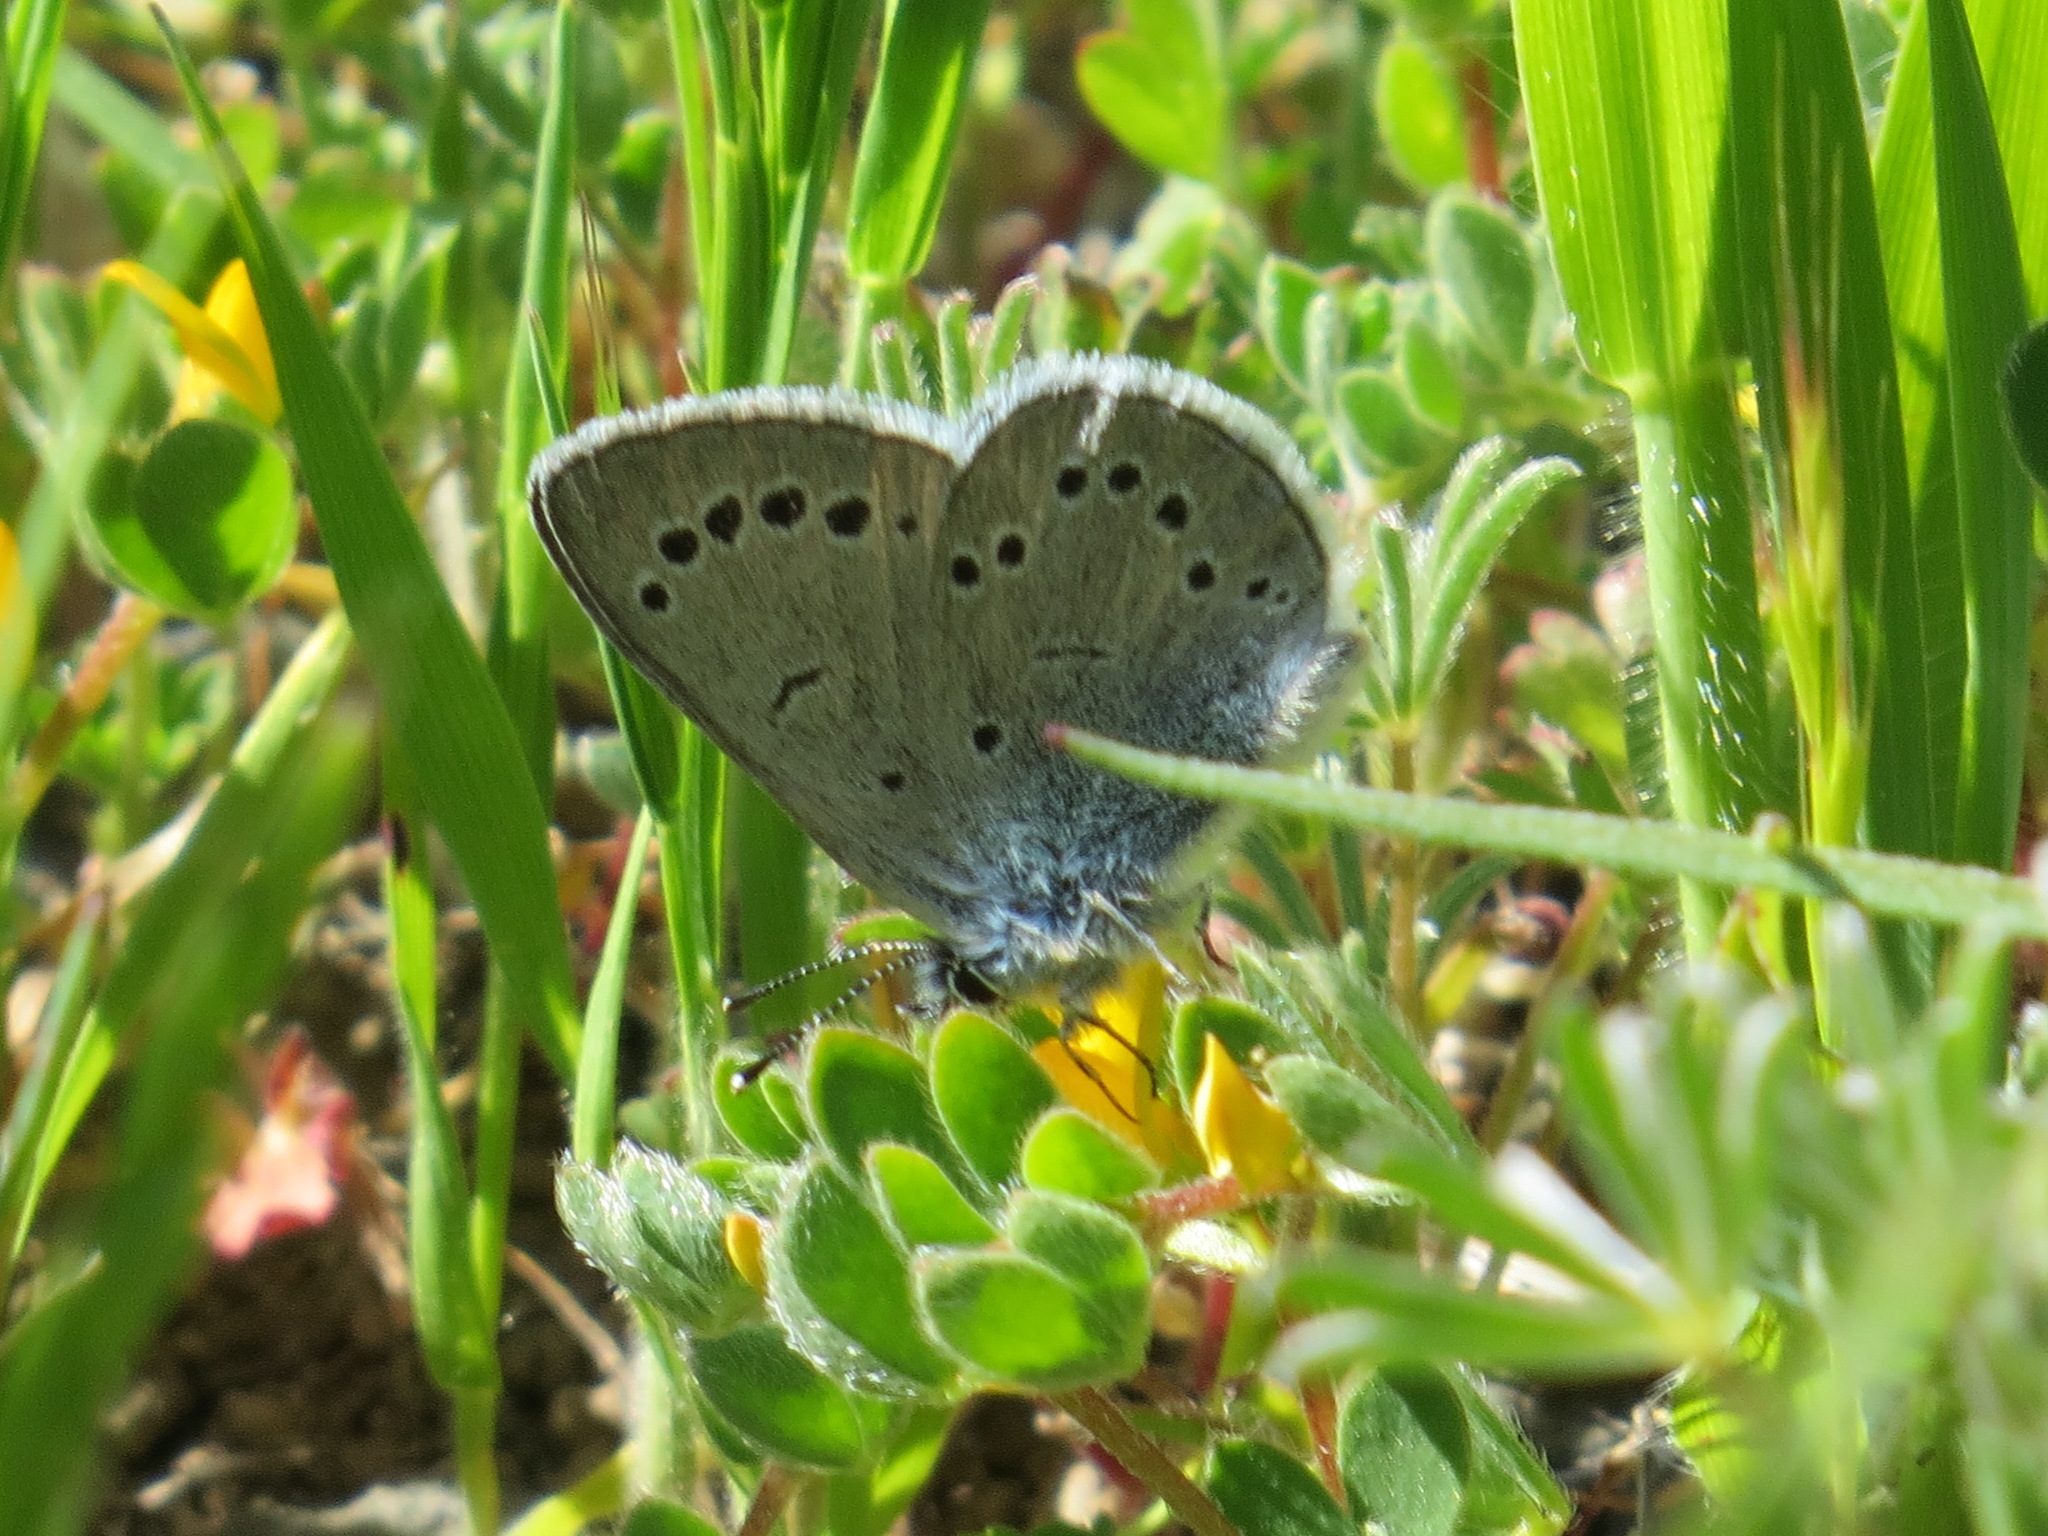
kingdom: Animalia
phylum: Arthropoda
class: Insecta
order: Lepidoptera
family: Lycaenidae
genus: Glaucopsyche
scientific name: Glaucopsyche lygdamus
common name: Silvery blue
